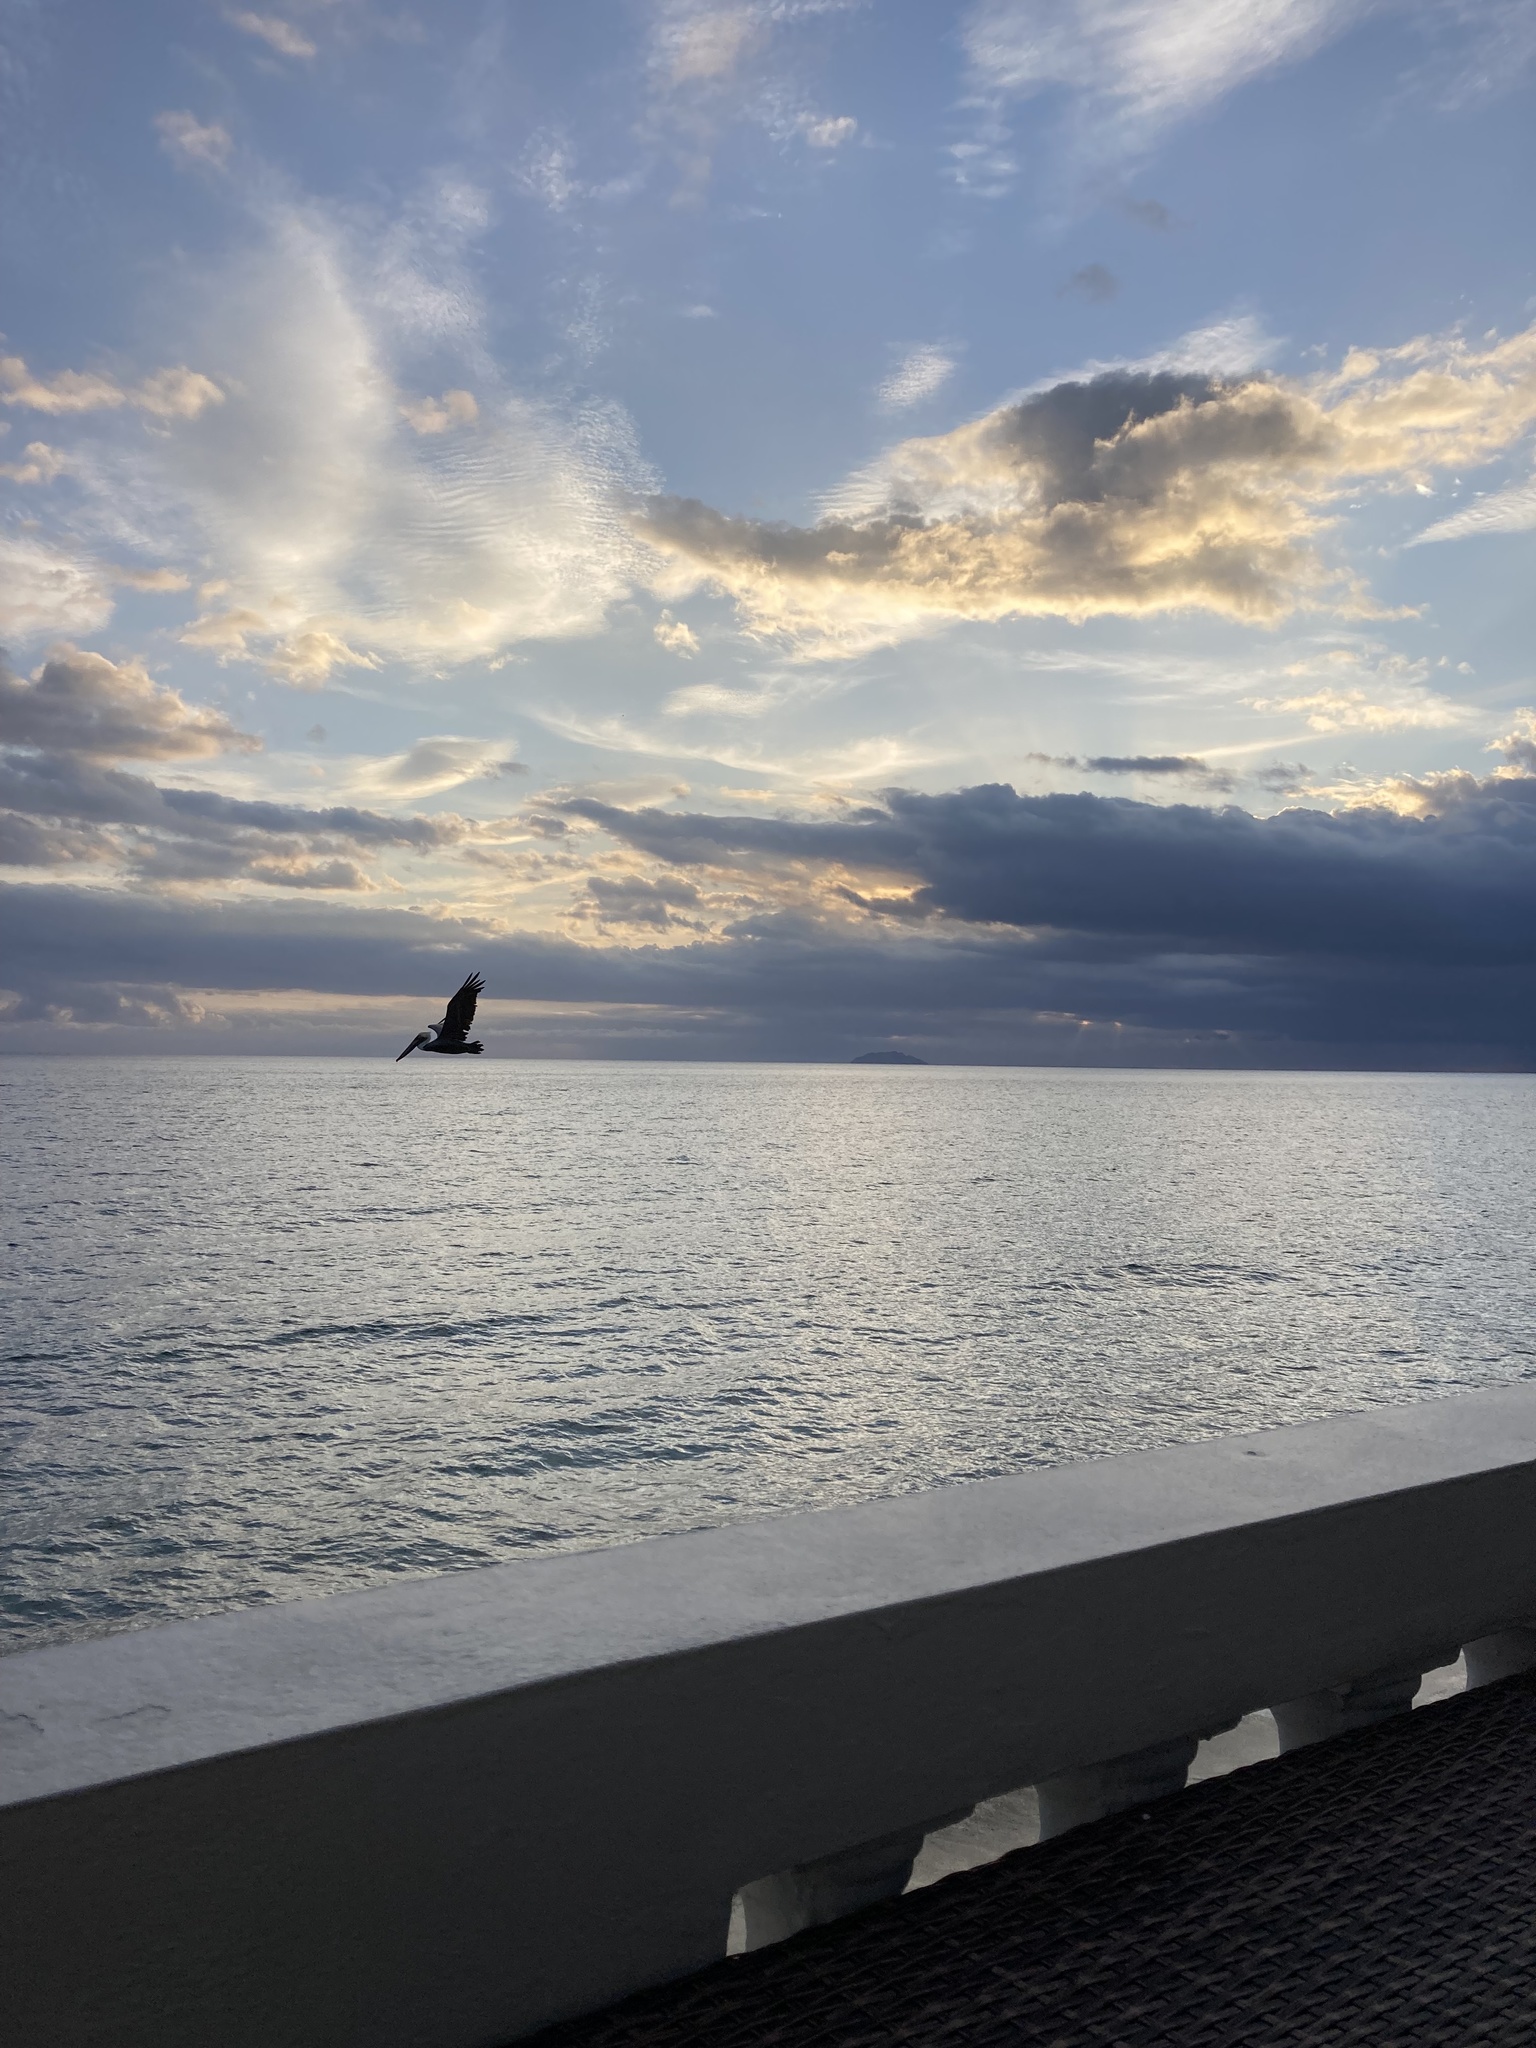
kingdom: Animalia
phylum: Chordata
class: Aves
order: Pelecaniformes
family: Pelecanidae
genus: Pelecanus
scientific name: Pelecanus occidentalis
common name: Brown pelican
